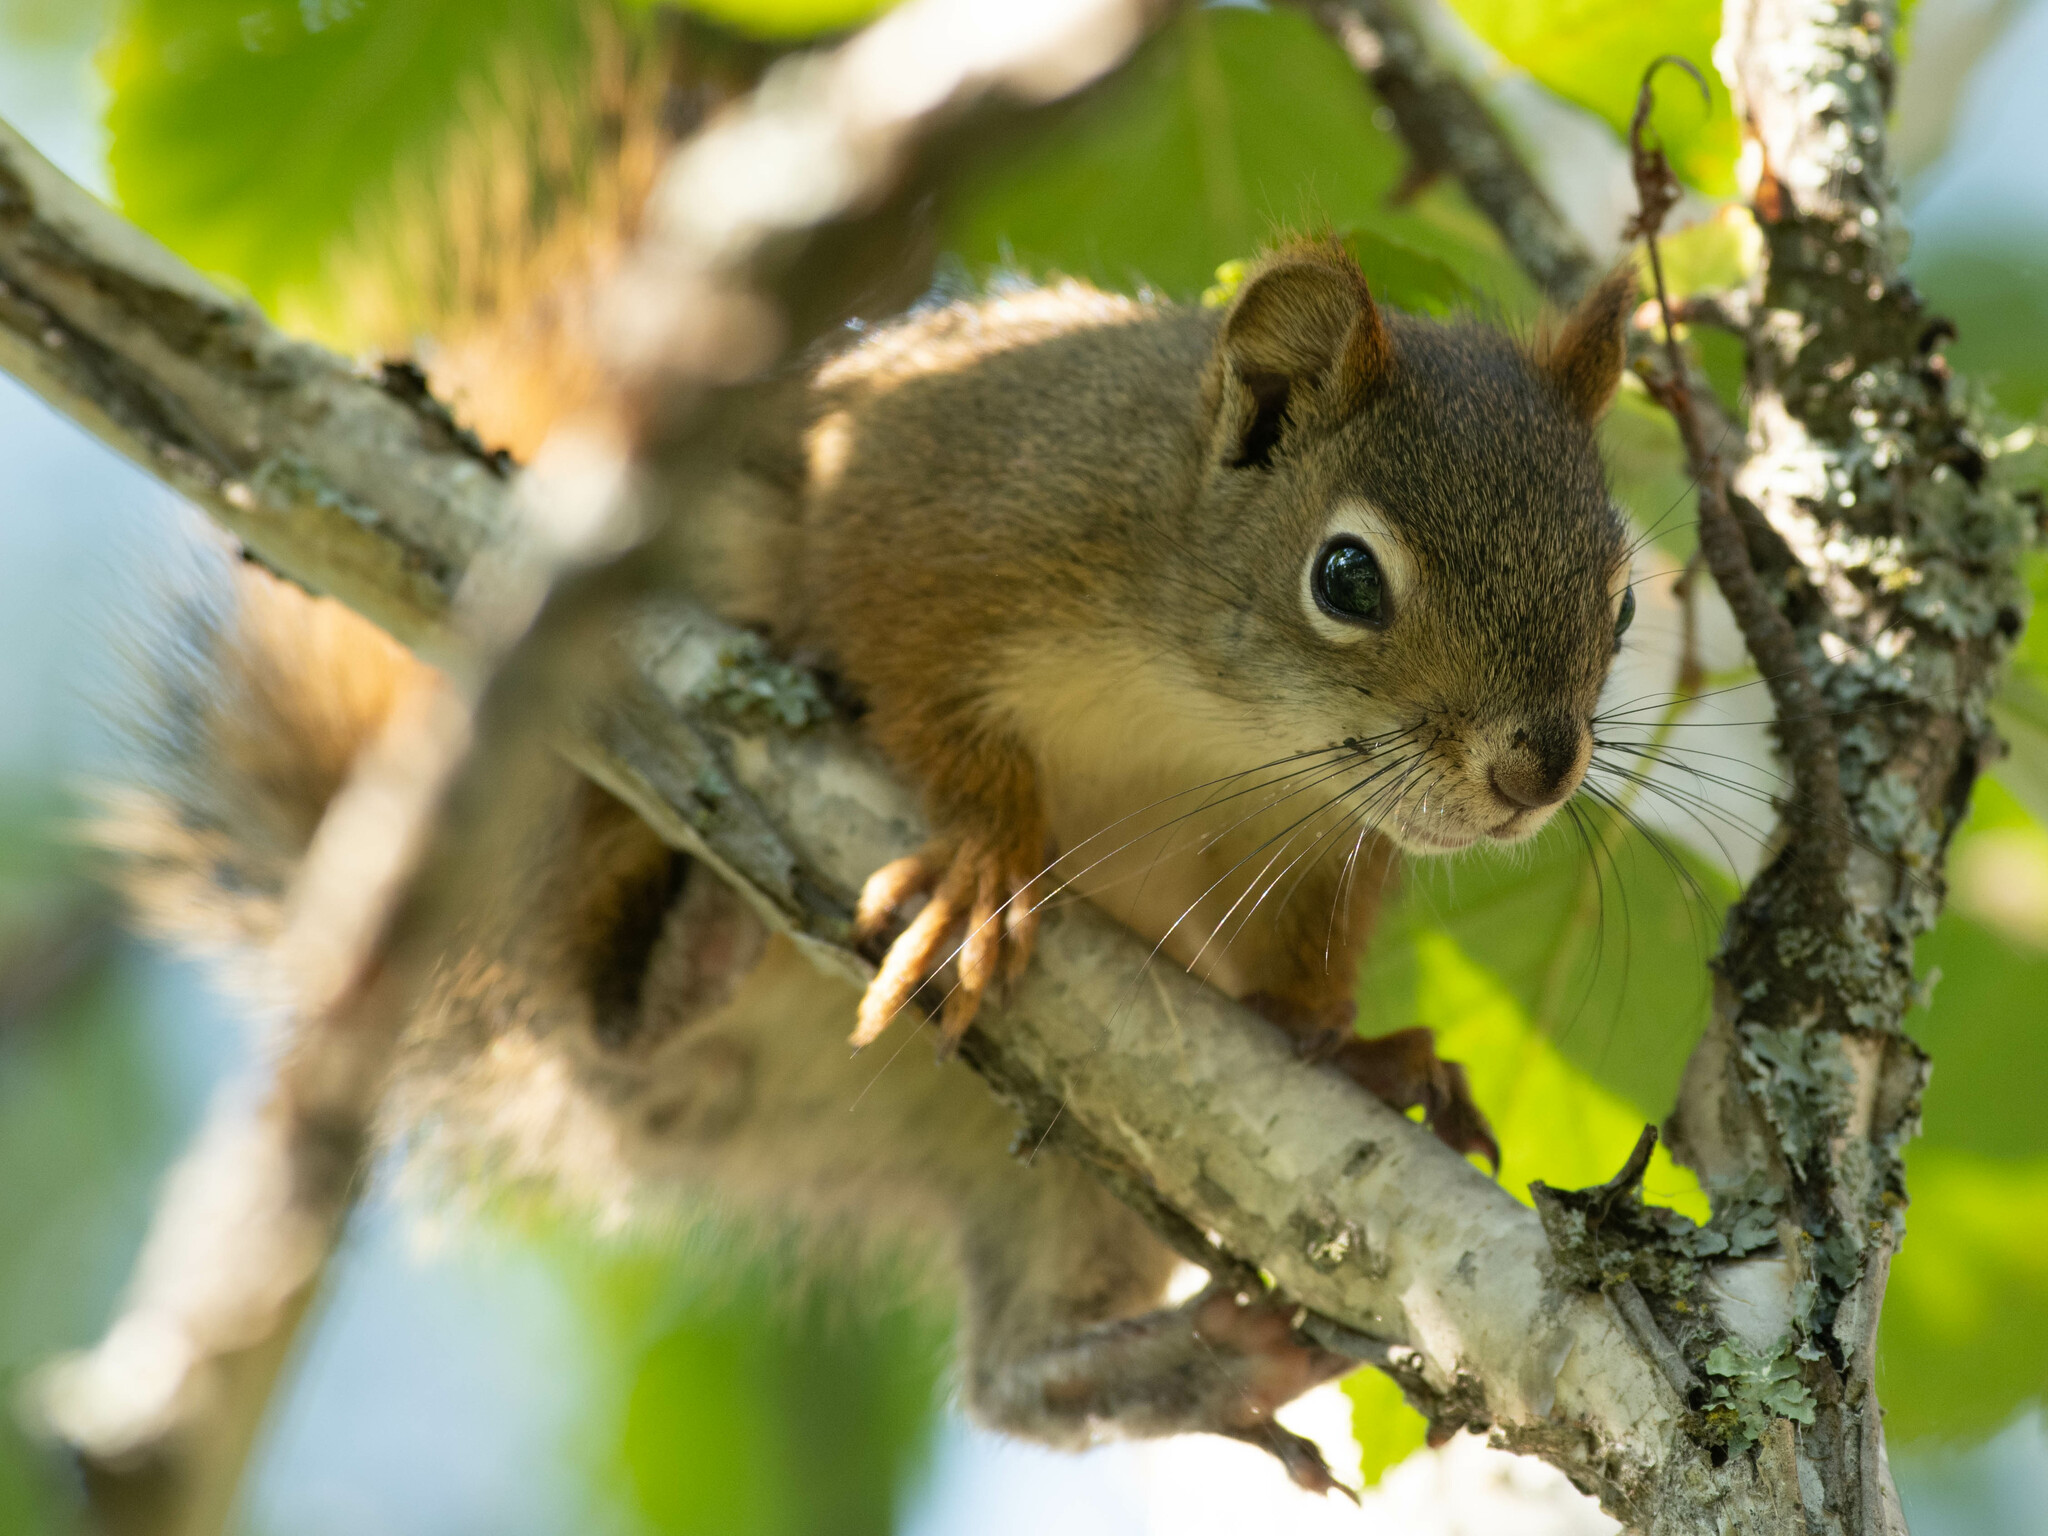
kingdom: Animalia
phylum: Chordata
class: Mammalia
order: Rodentia
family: Sciuridae
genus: Tamiasciurus
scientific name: Tamiasciurus hudsonicus
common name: Red squirrel
